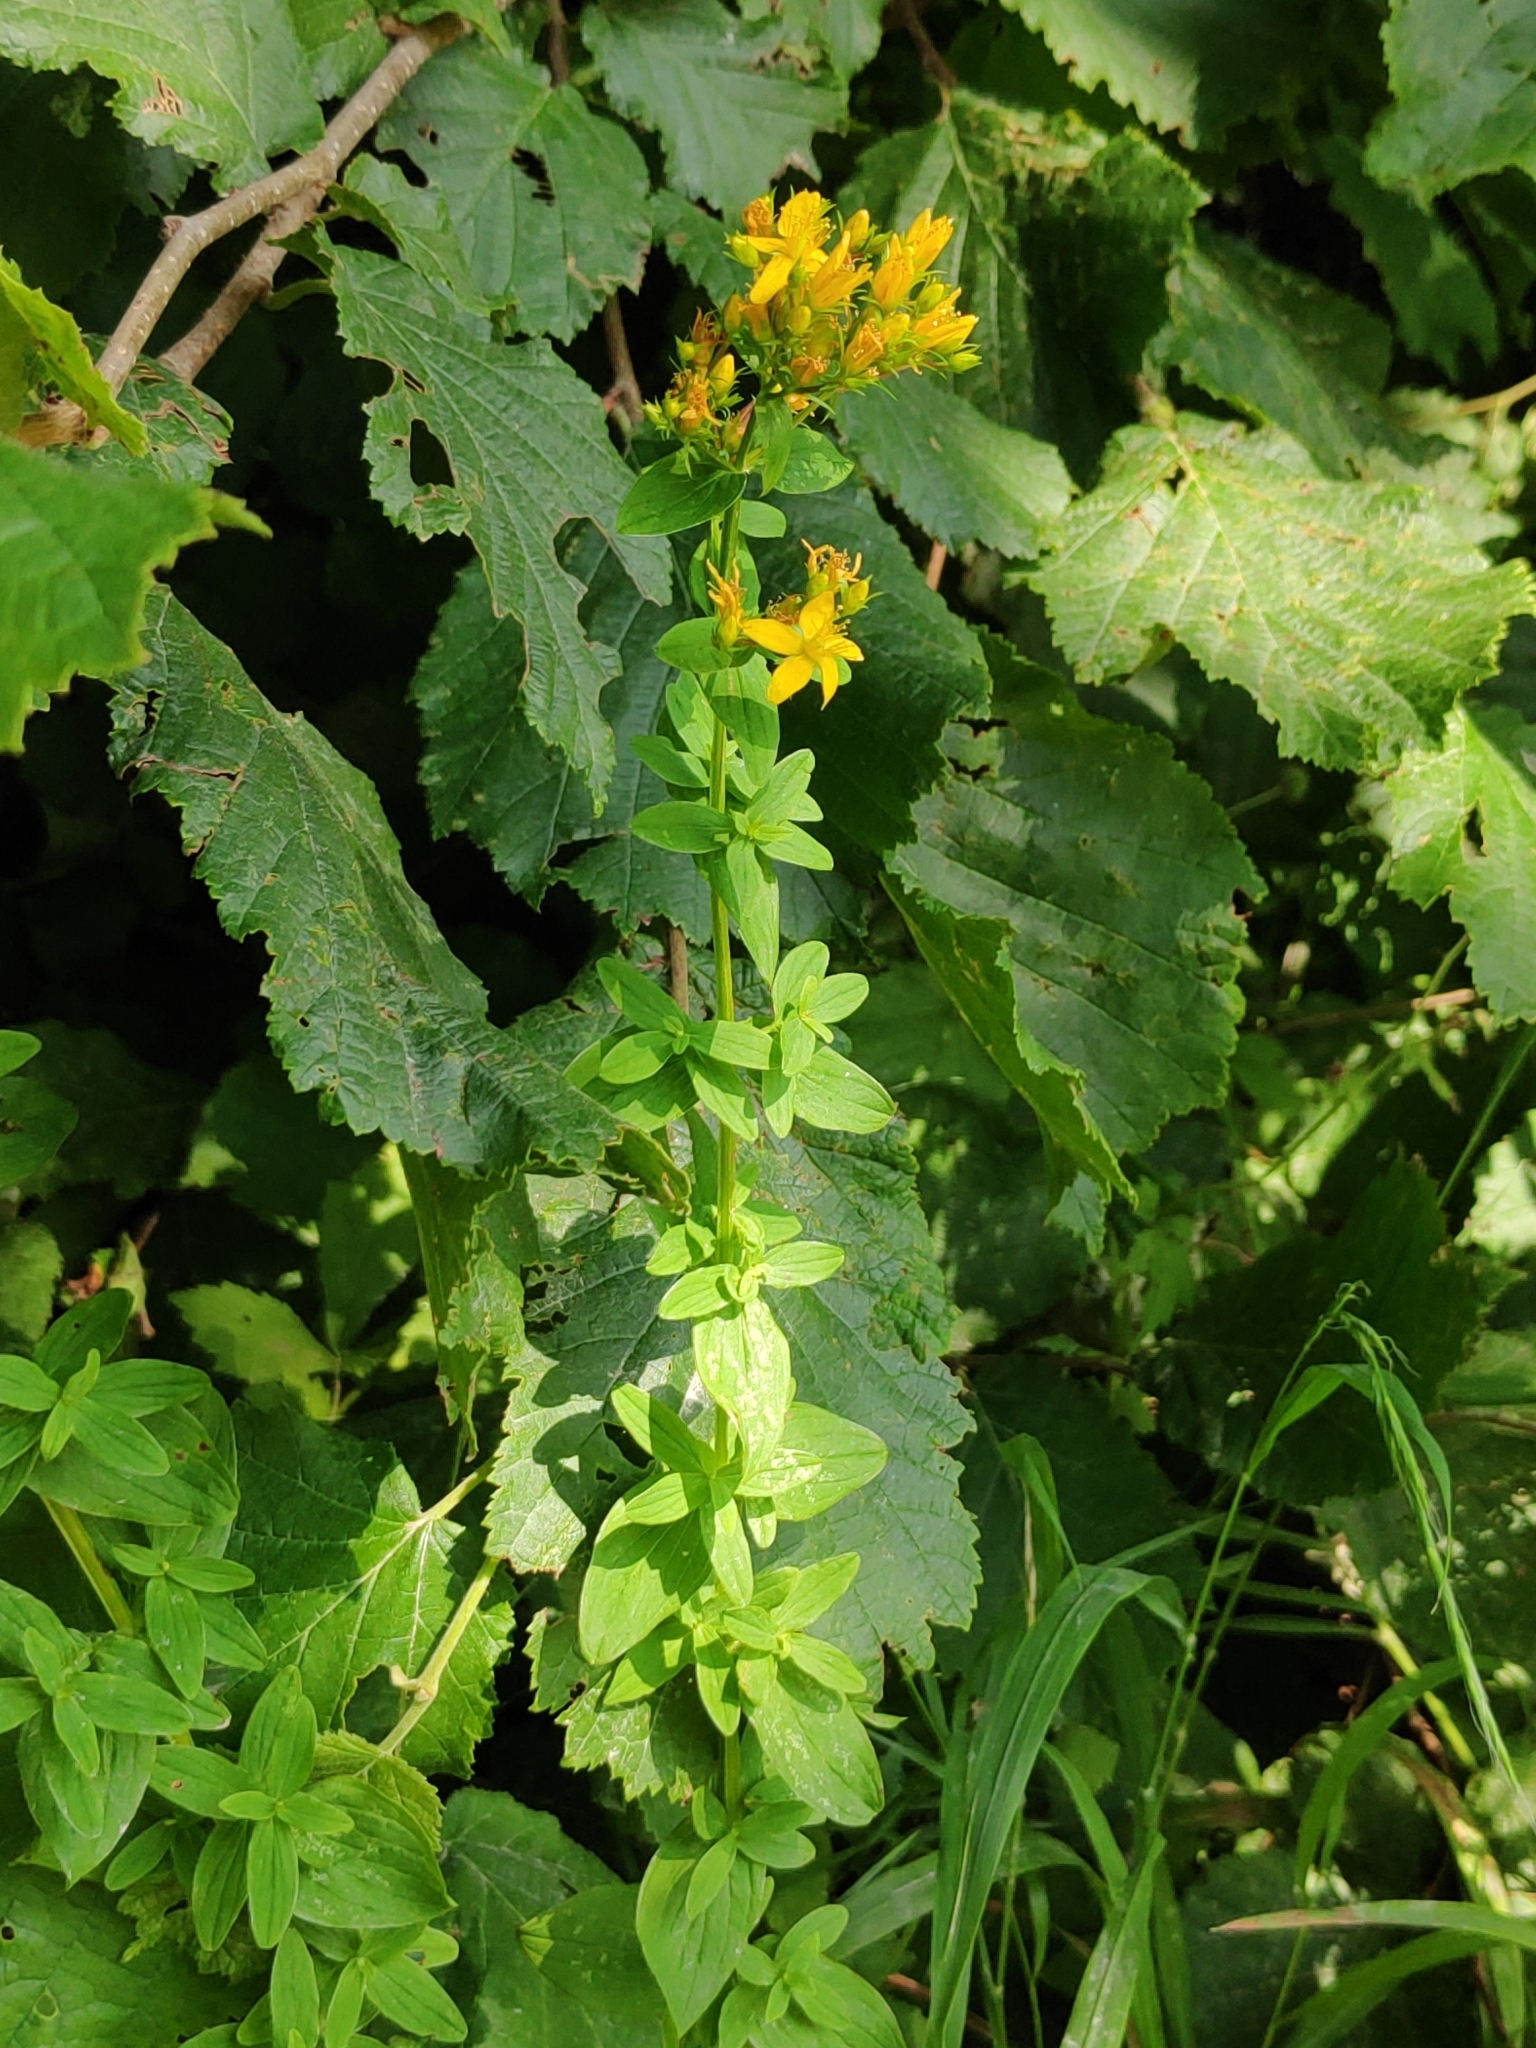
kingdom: Plantae
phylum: Tracheophyta
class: Magnoliopsida
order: Malpighiales
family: Hypericaceae
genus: Hypericum
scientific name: Hypericum perforatum
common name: Common st. johnswort
